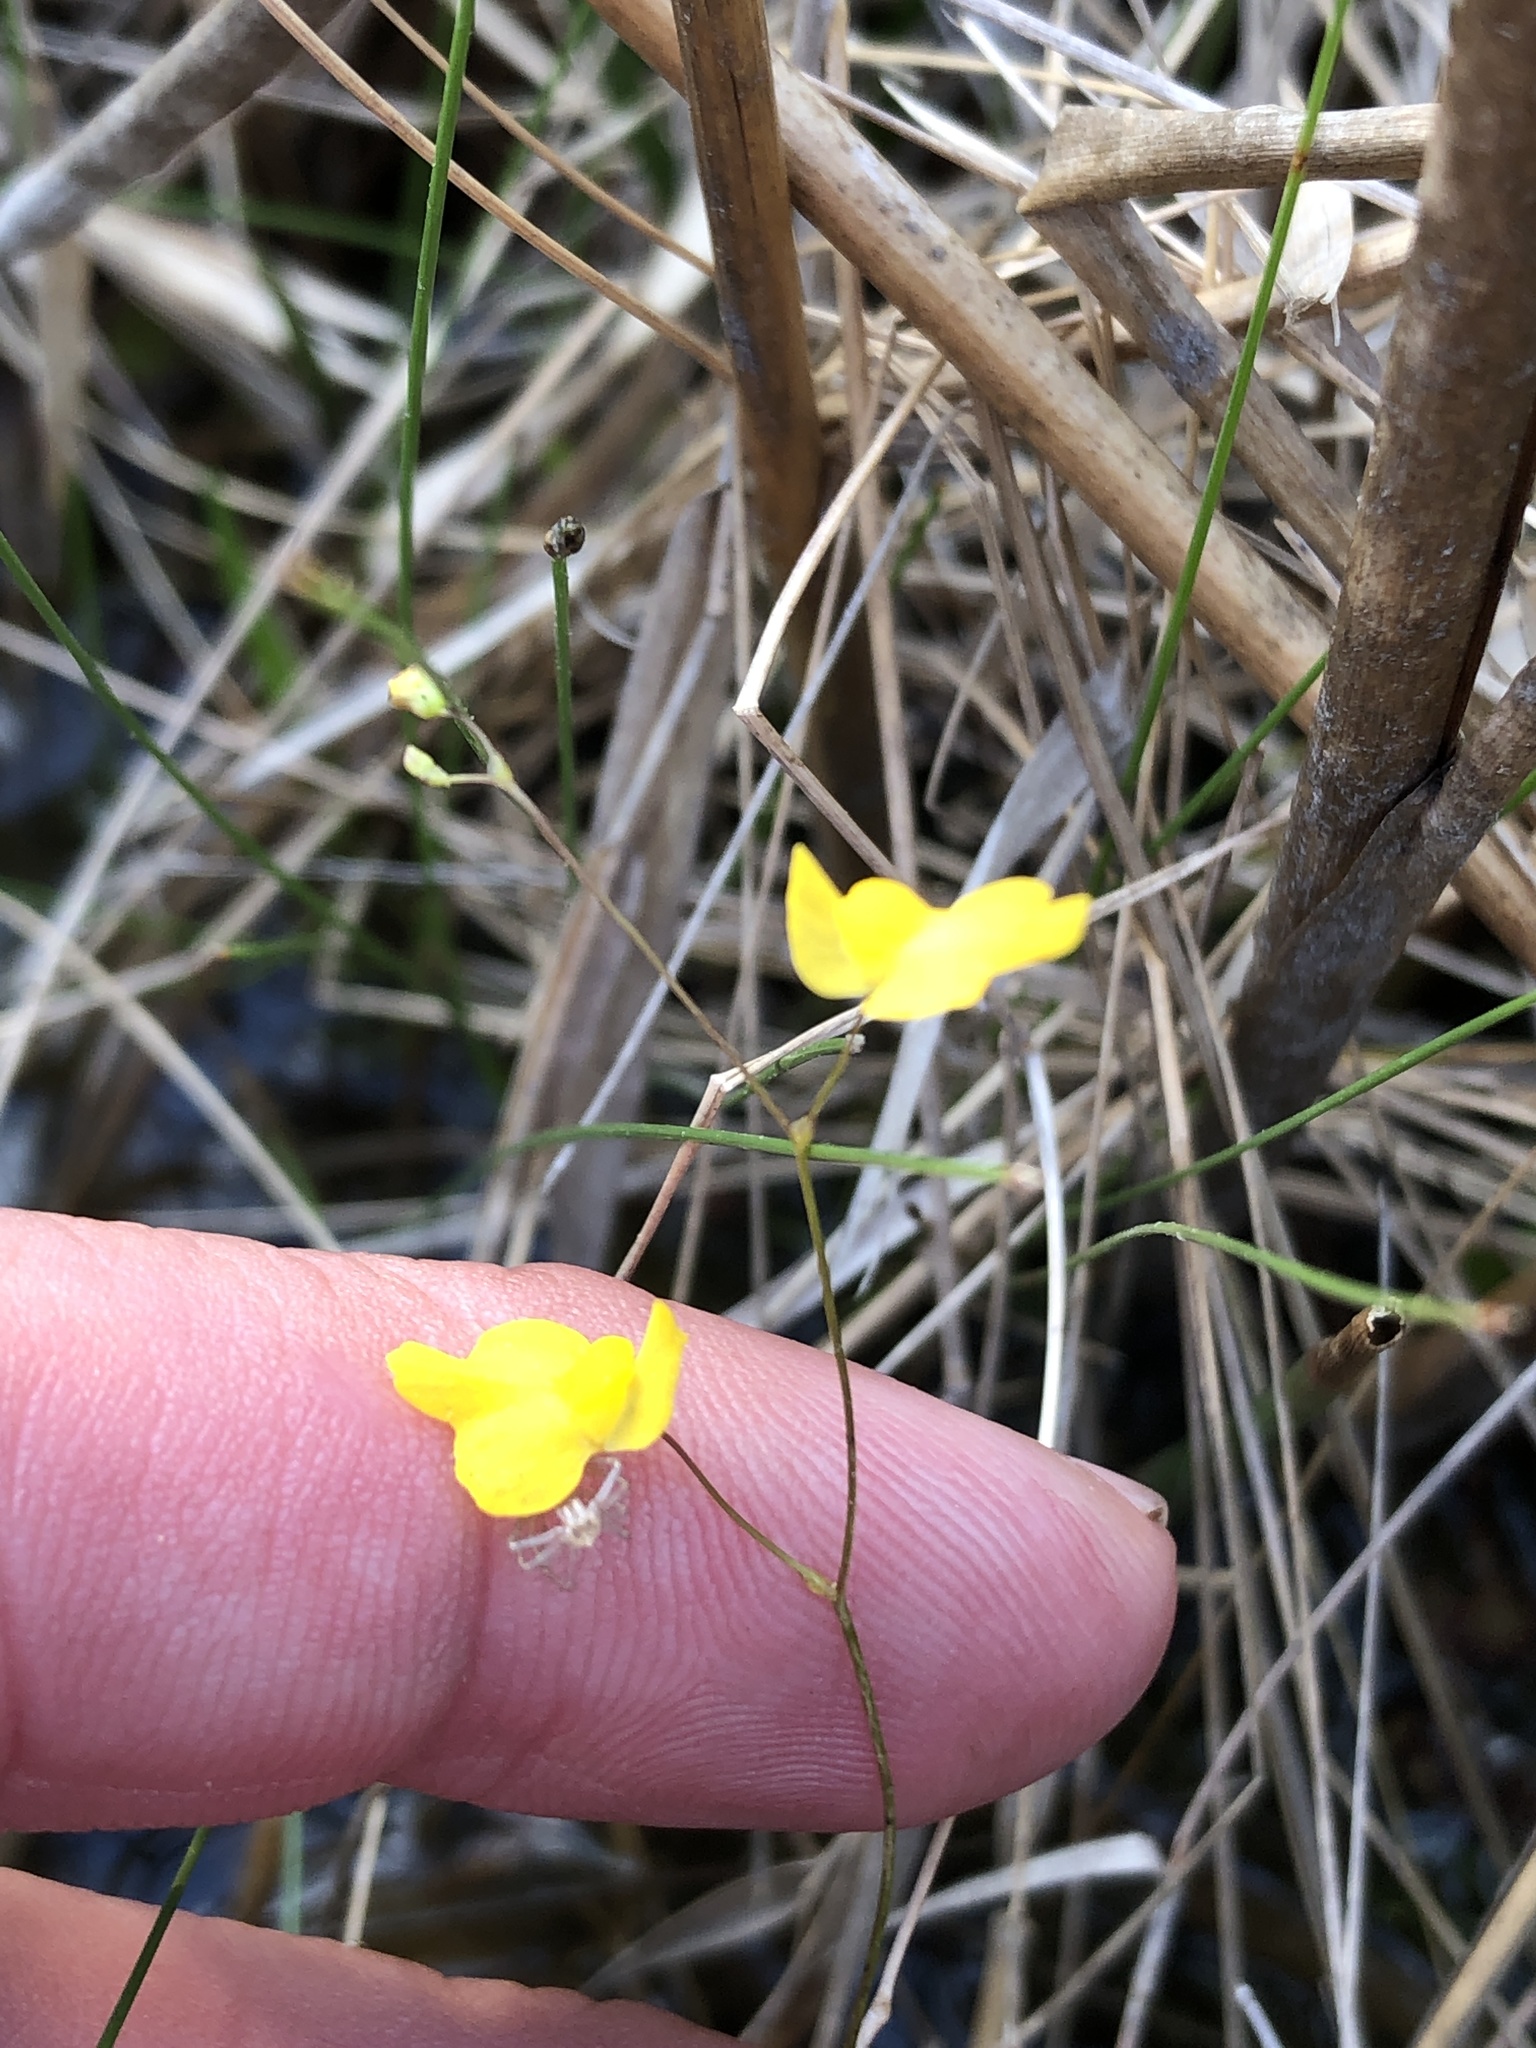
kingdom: Plantae
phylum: Tracheophyta
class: Magnoliopsida
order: Lamiales
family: Lentibulariaceae
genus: Utricularia
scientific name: Utricularia gibba
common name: Humped bladderwort
